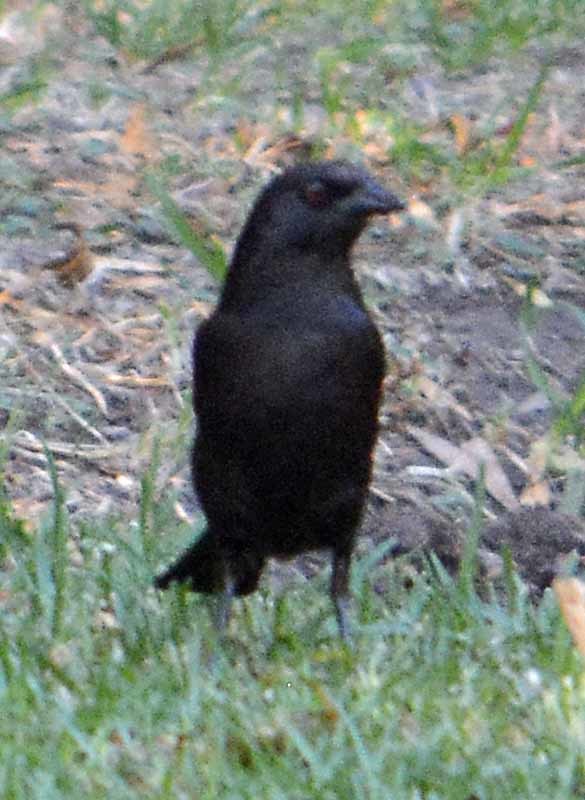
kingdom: Animalia
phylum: Chordata
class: Aves
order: Passeriformes
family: Icteridae
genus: Molothrus
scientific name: Molothrus aeneus
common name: Bronzed cowbird
